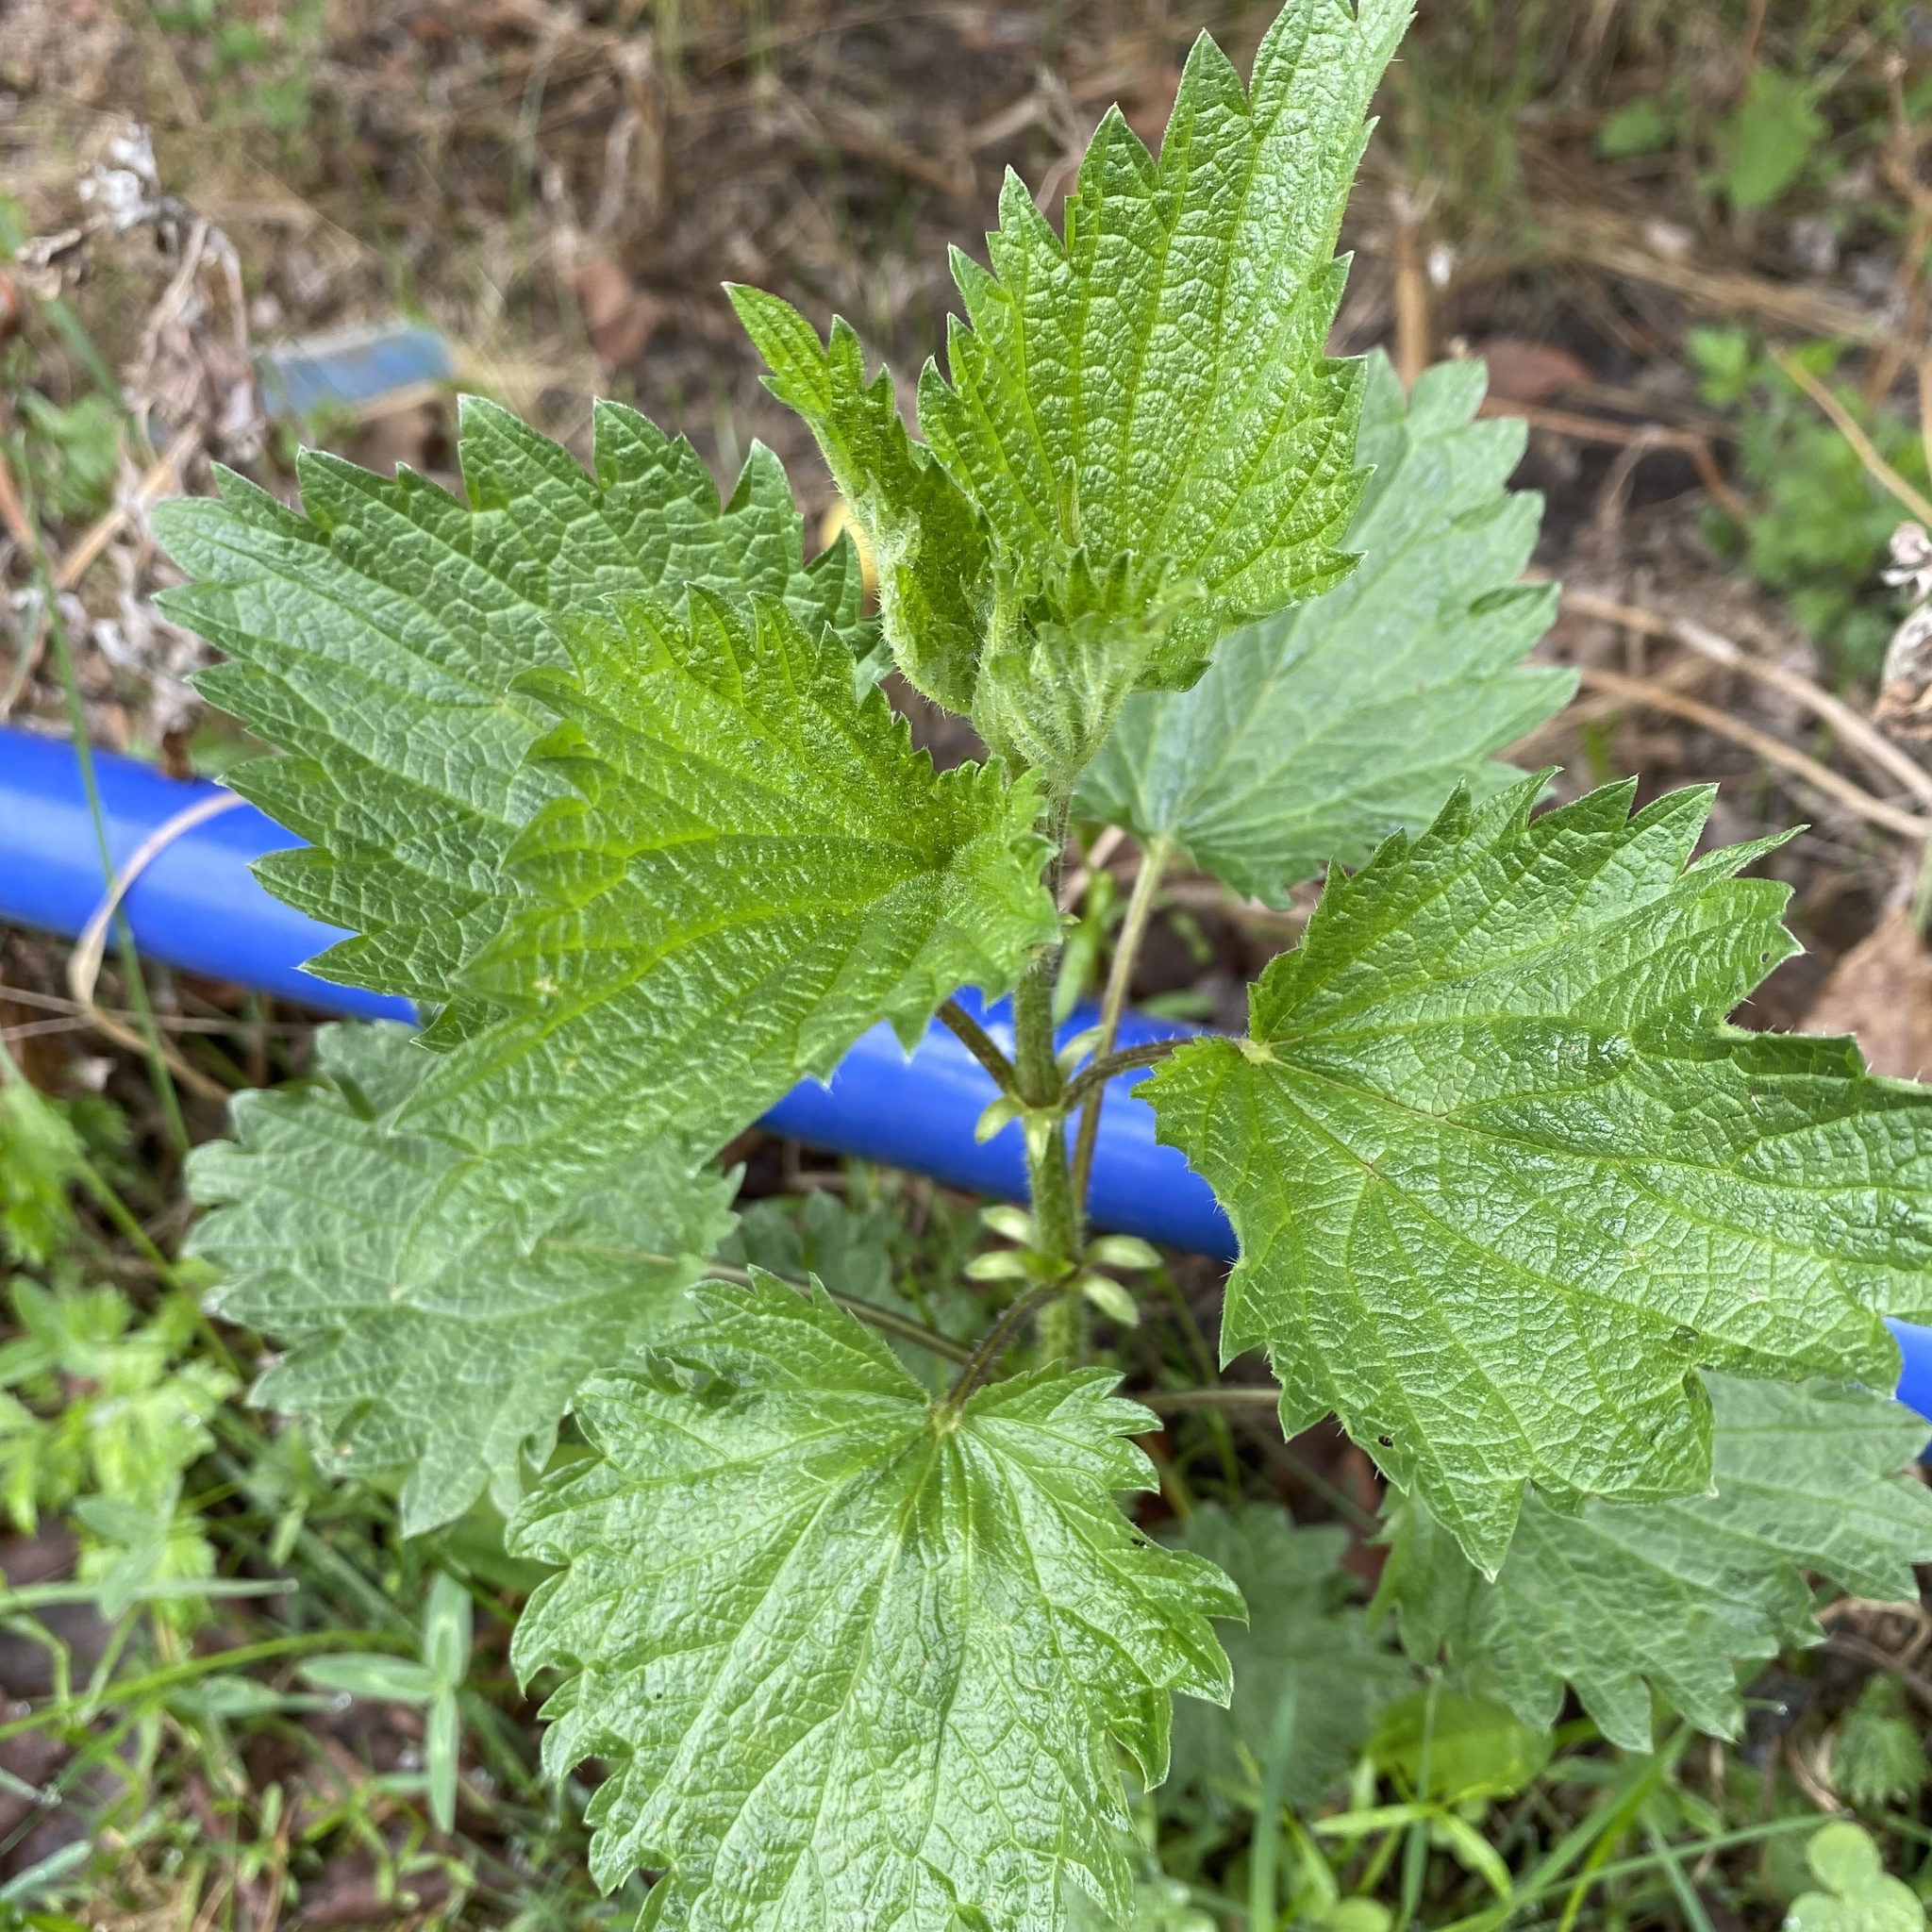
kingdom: Plantae
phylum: Tracheophyta
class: Magnoliopsida
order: Rosales
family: Urticaceae
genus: Urtica
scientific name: Urtica dioica
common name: Common nettle
